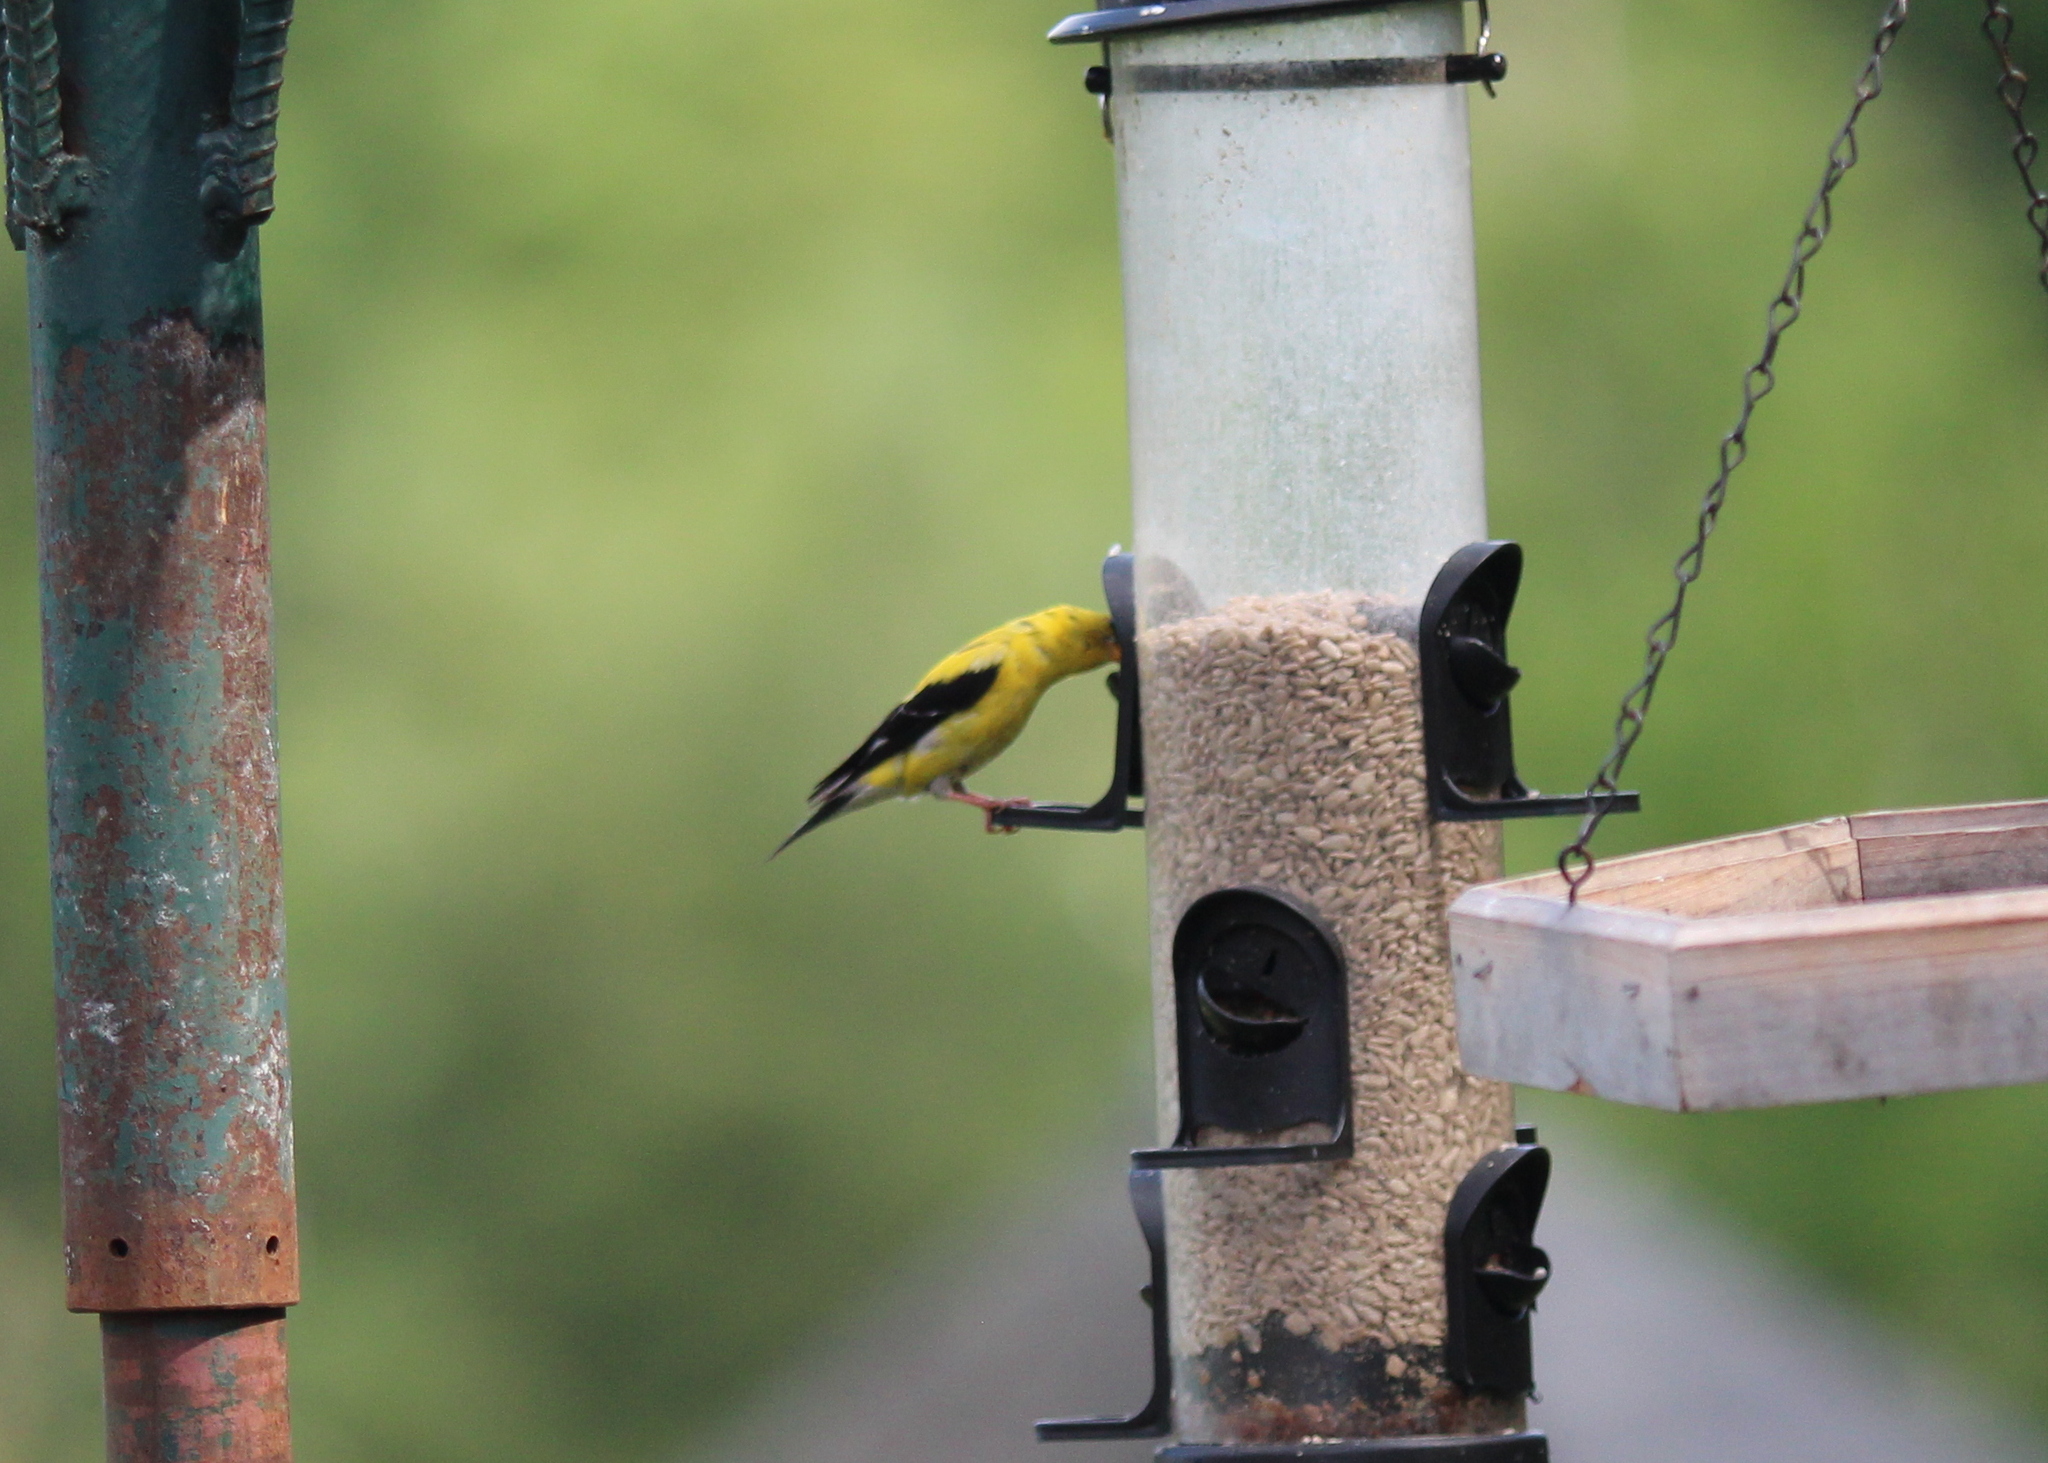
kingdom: Animalia
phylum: Chordata
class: Aves
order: Passeriformes
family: Fringillidae
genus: Spinus
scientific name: Spinus tristis
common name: American goldfinch
